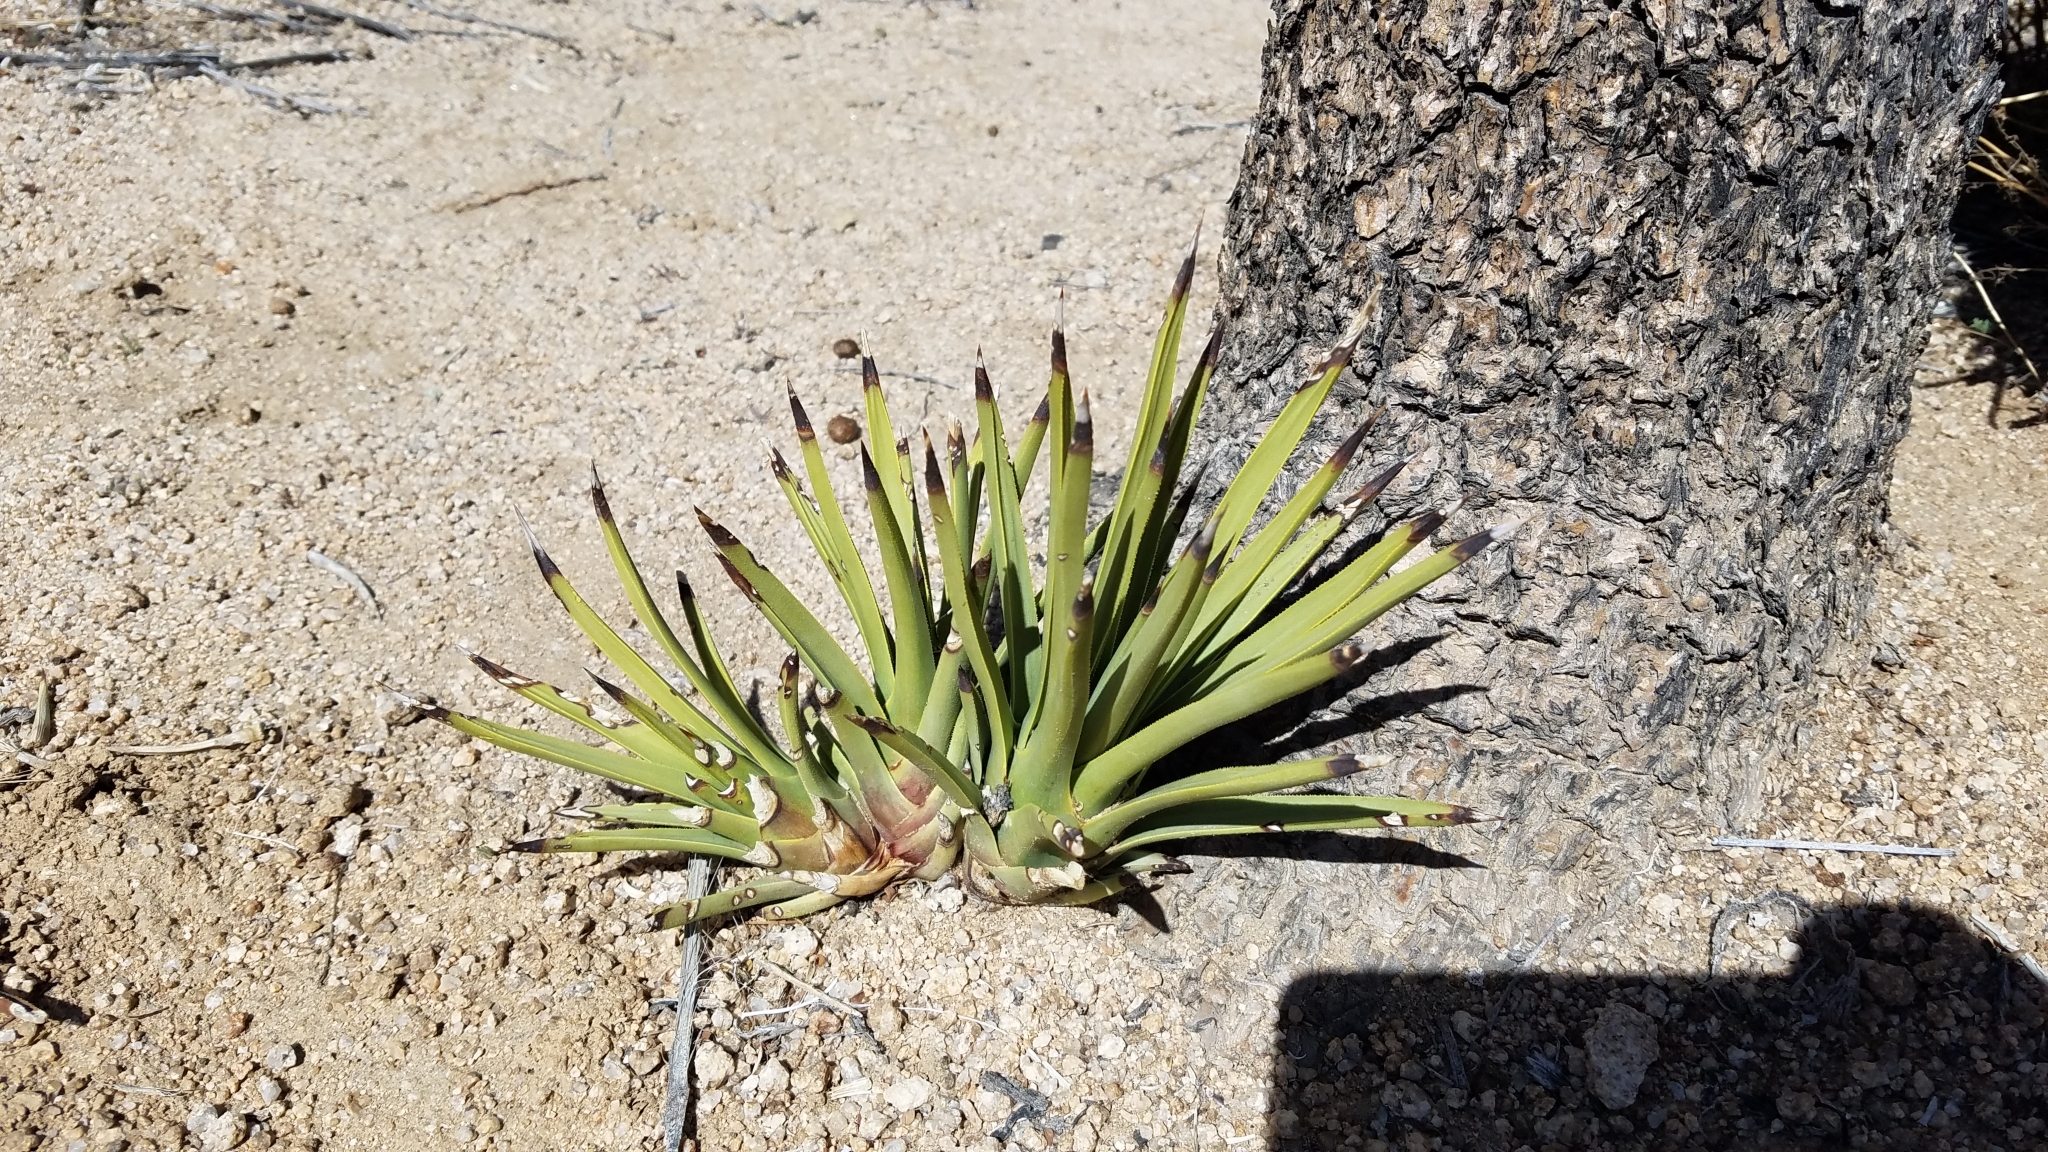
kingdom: Plantae
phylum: Tracheophyta
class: Liliopsida
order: Asparagales
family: Asparagaceae
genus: Yucca
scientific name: Yucca brevifolia
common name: Joshua tree
